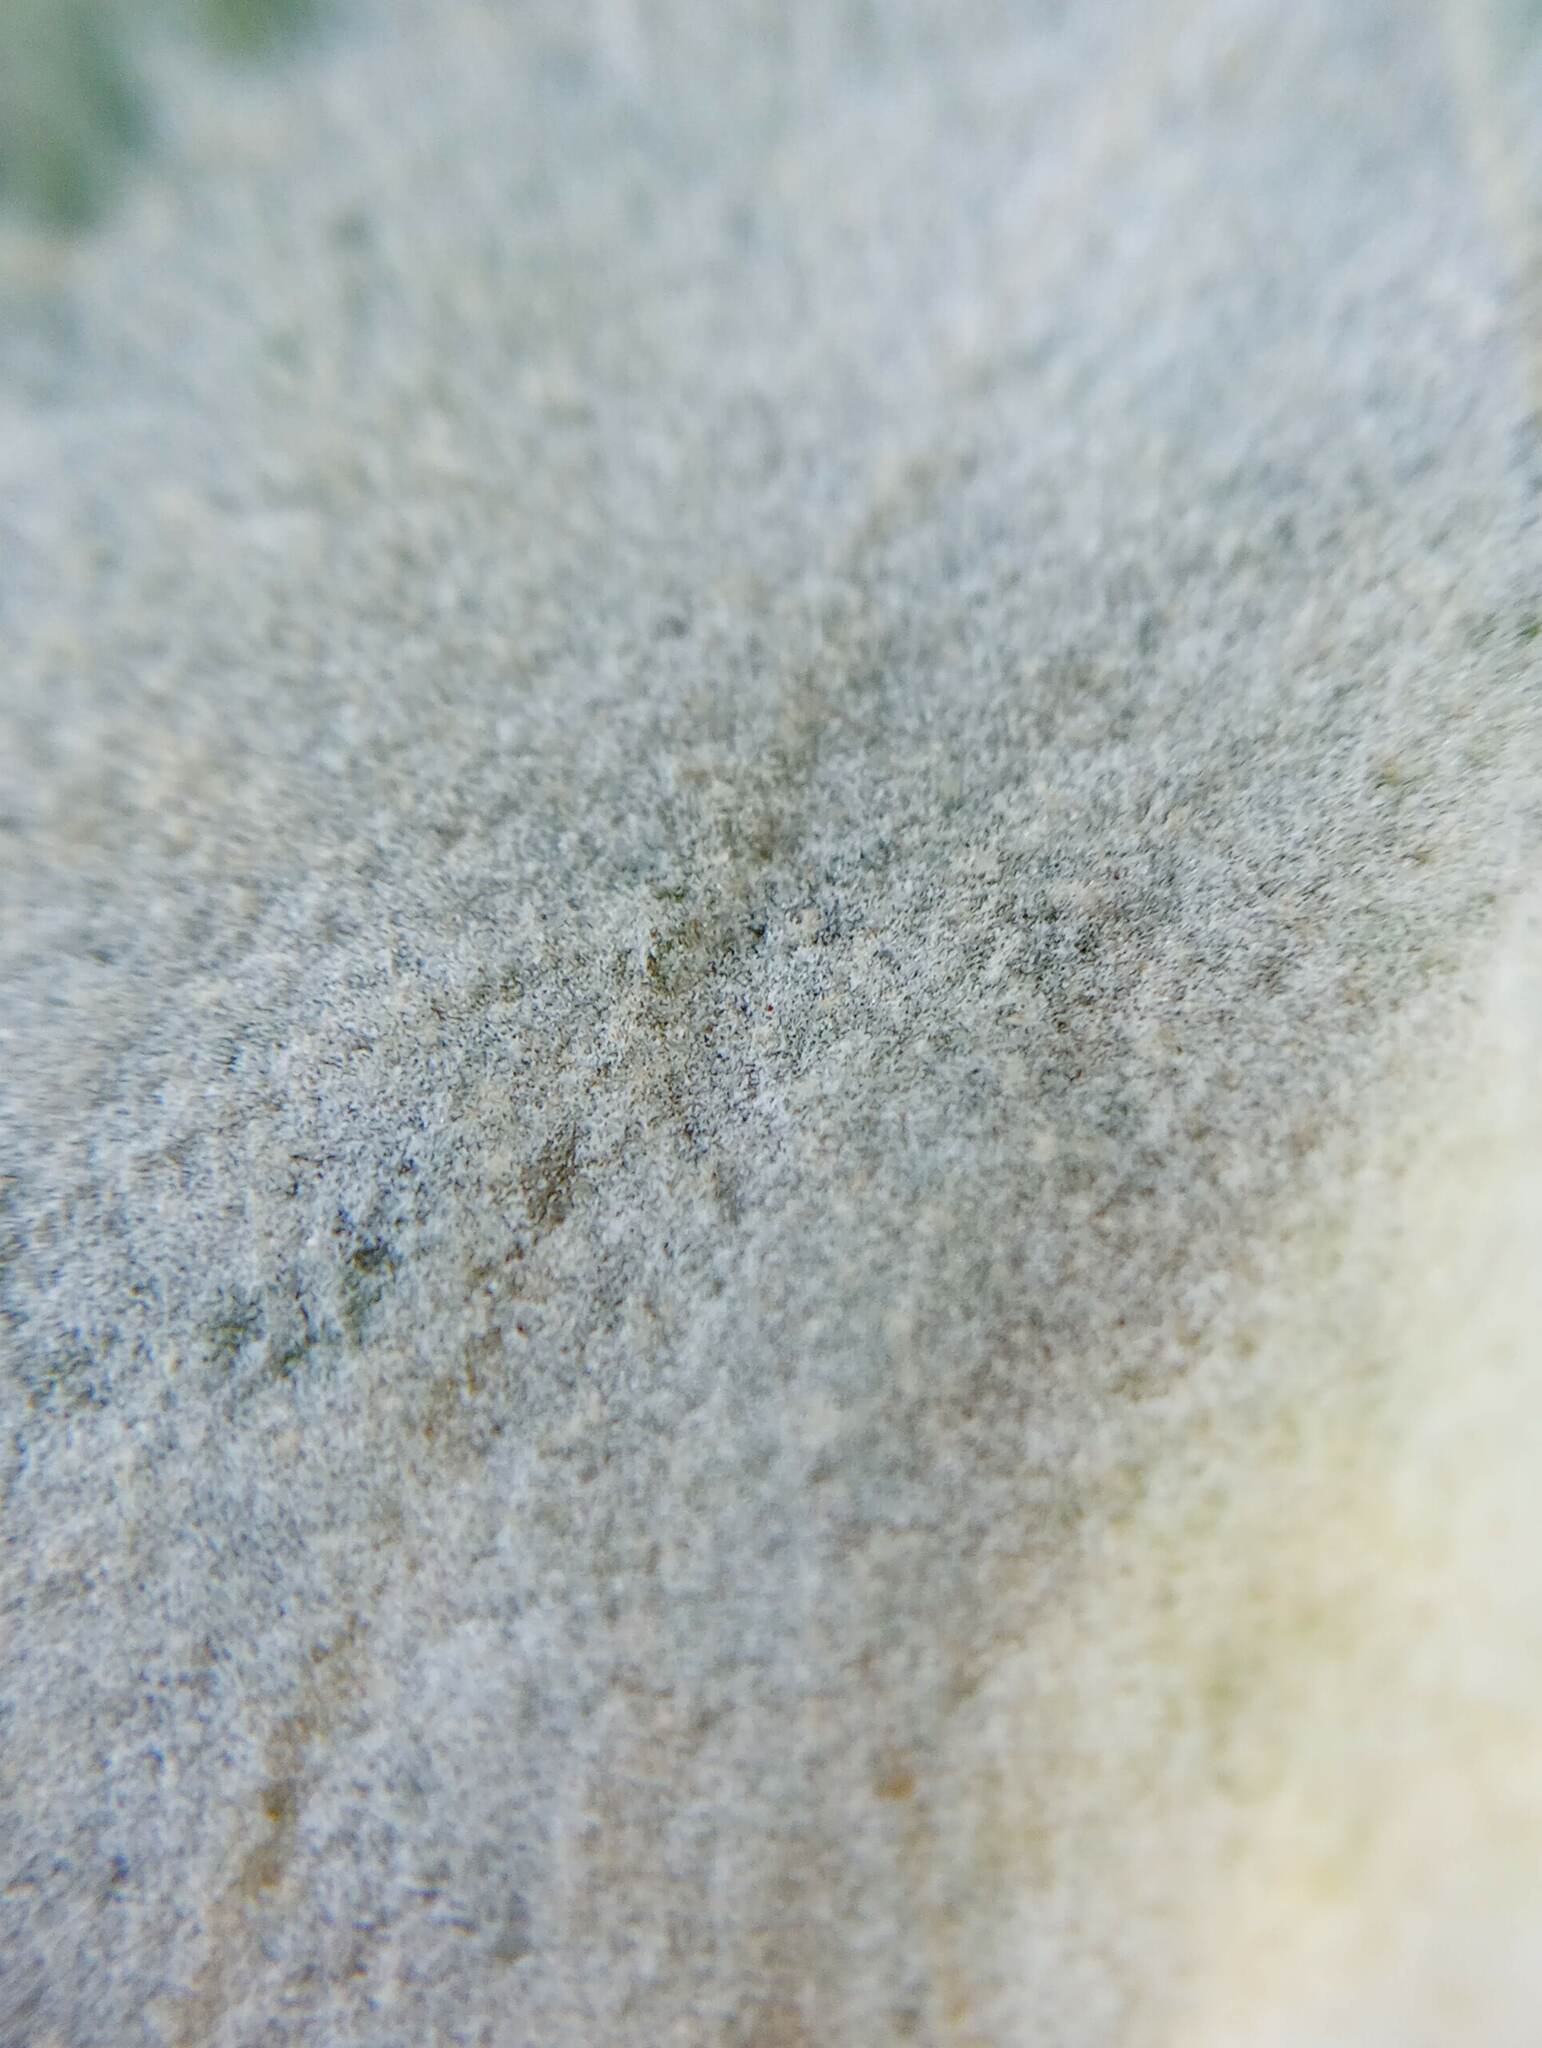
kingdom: Fungi
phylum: Ascomycota
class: Leotiomycetes
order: Helotiales
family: Erysiphaceae
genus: Erysiphe
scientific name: Erysiphe platani
